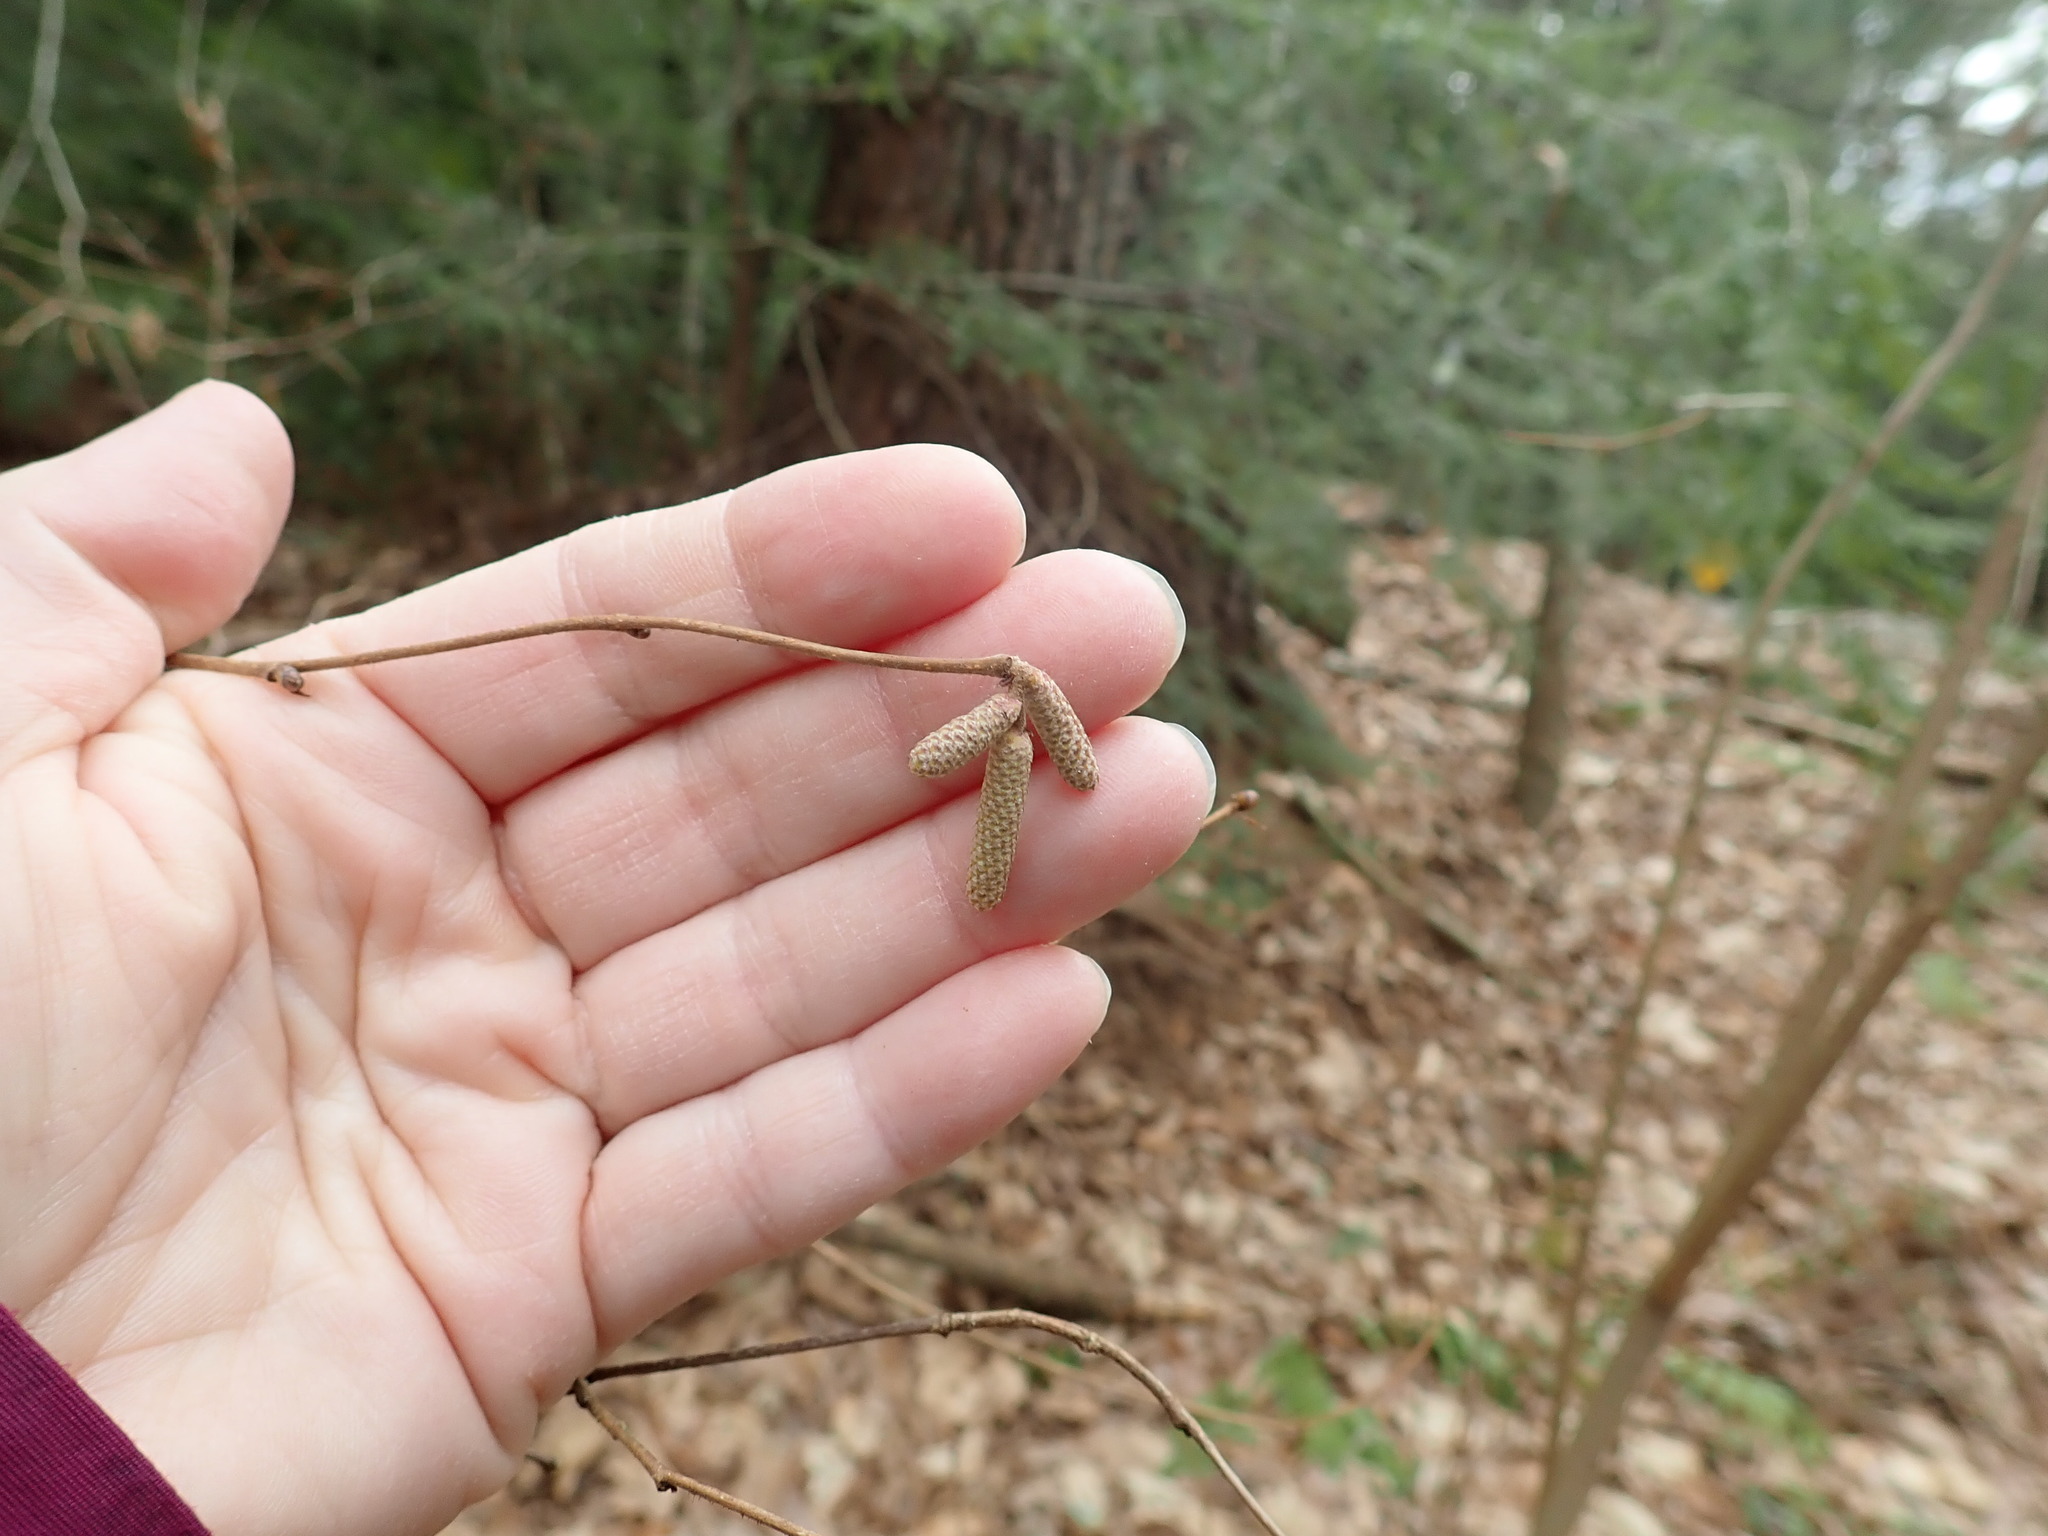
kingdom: Plantae
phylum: Tracheophyta
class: Magnoliopsida
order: Fagales
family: Betulaceae
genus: Corylus
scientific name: Corylus cornuta
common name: Beaked hazel
